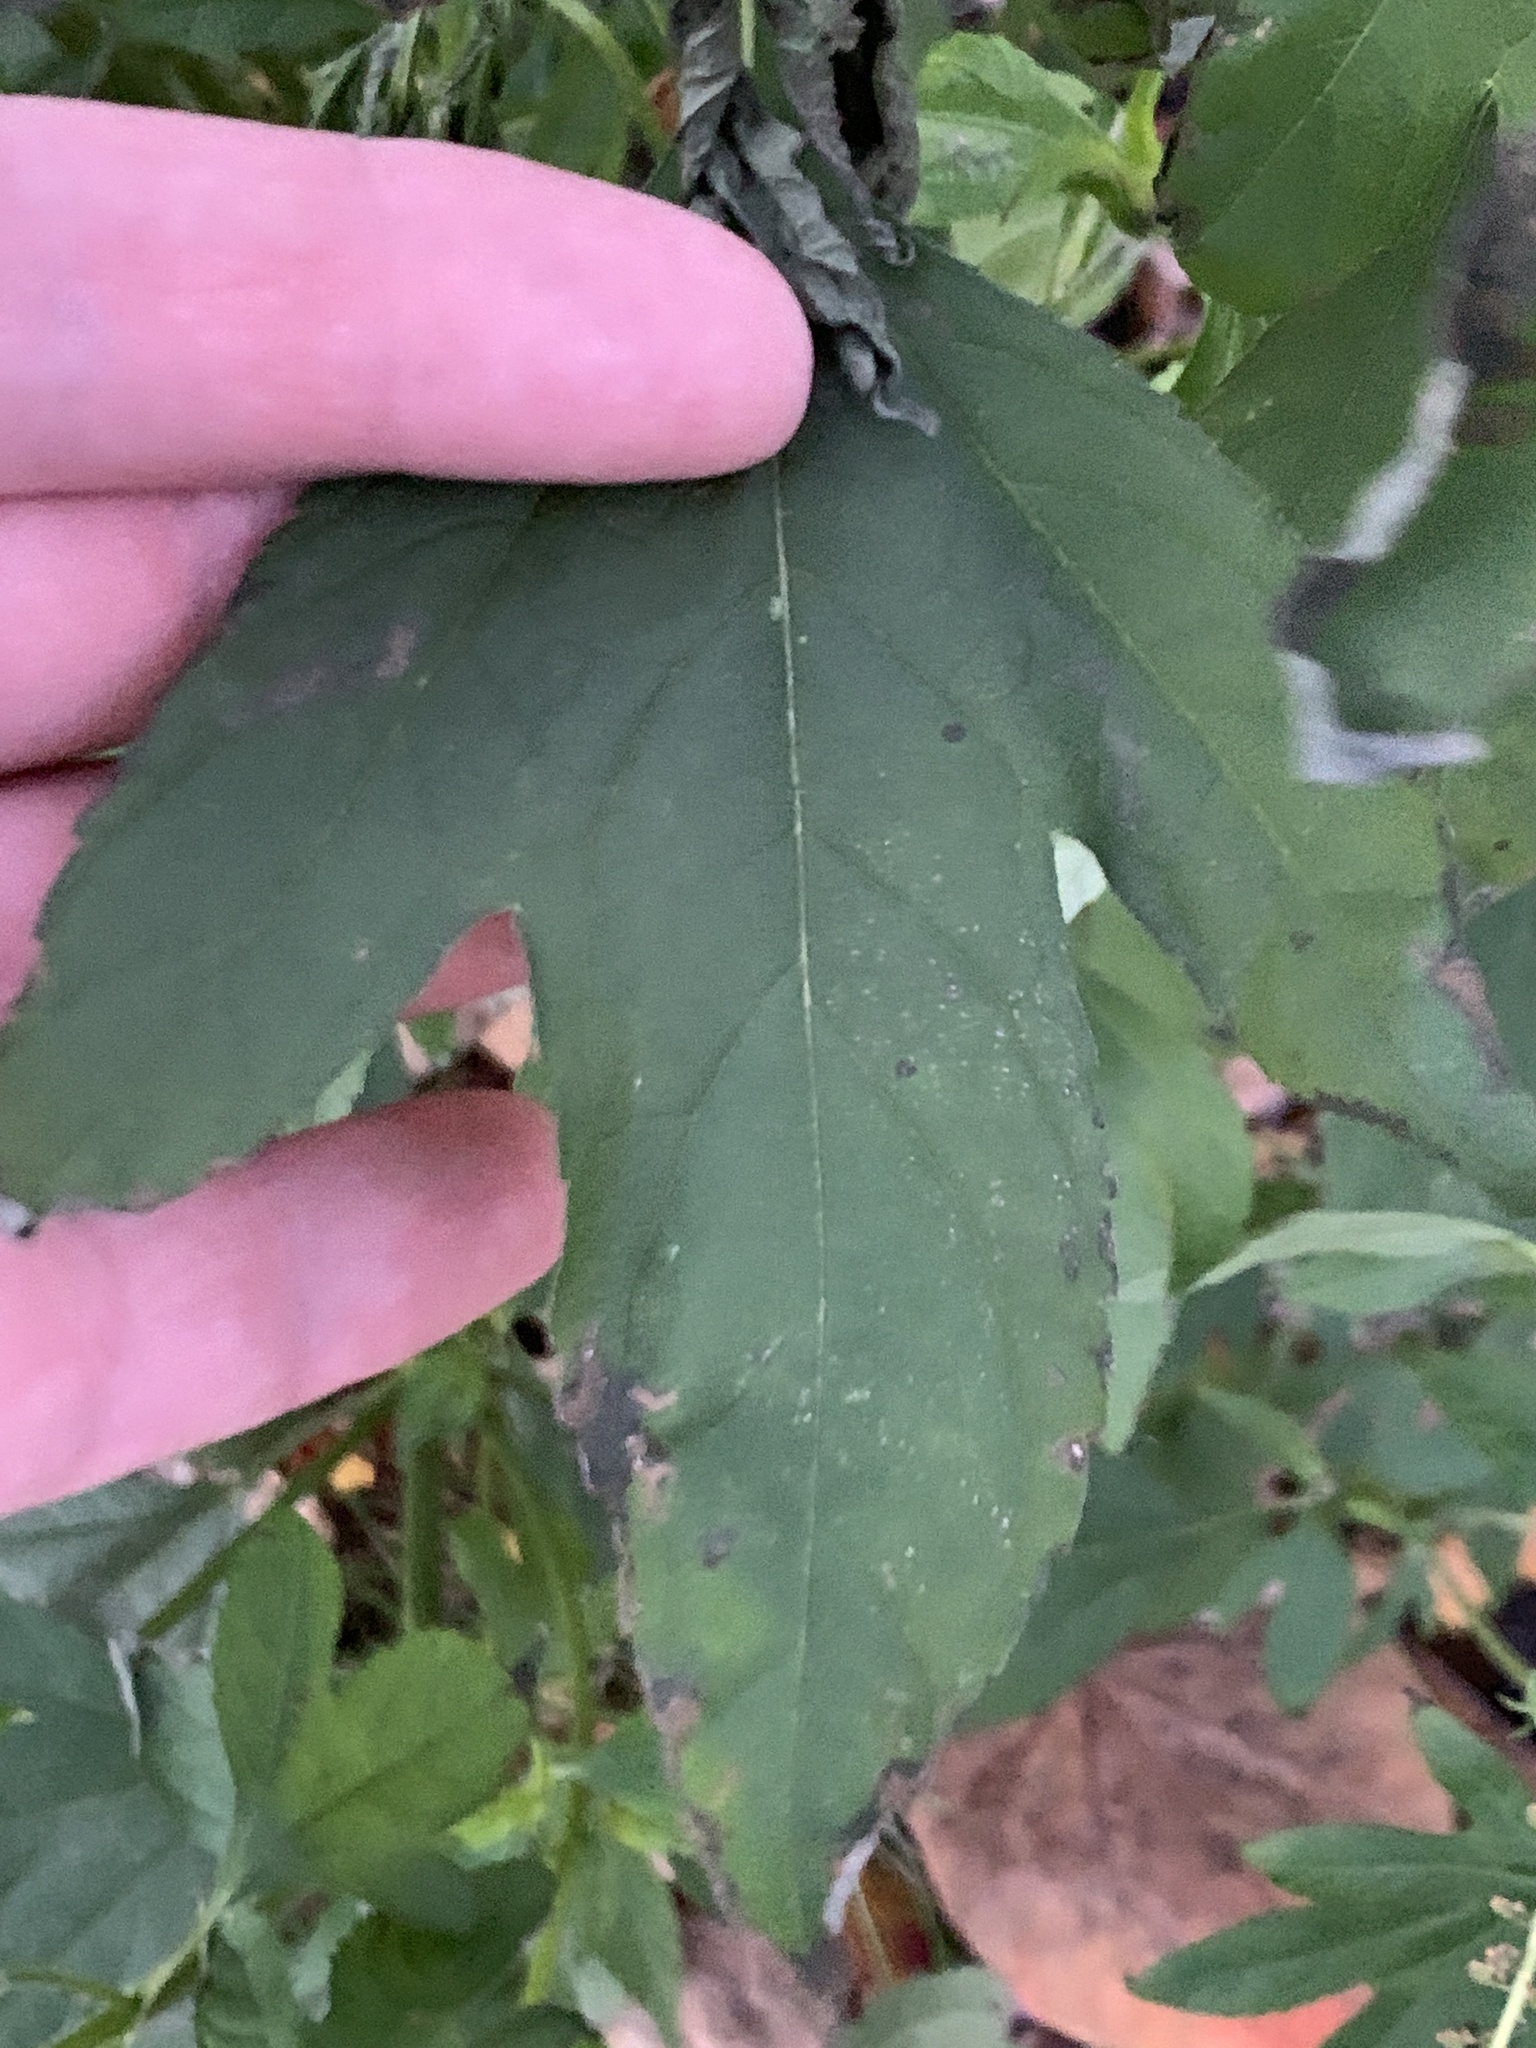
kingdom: Plantae
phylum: Tracheophyta
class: Magnoliopsida
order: Asterales
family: Asteraceae
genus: Ambrosia
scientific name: Ambrosia trifida
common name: Giant ragweed
